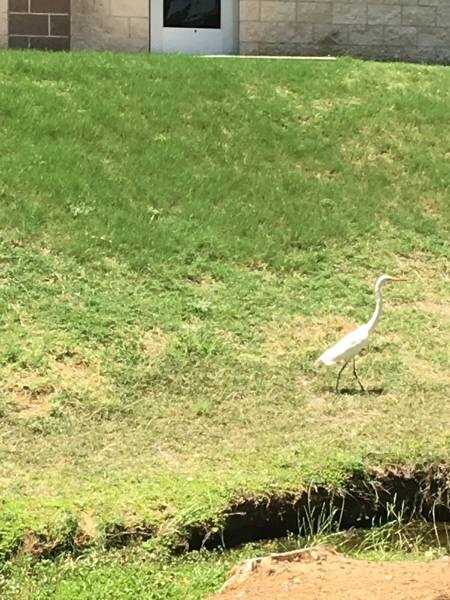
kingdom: Animalia
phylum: Chordata
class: Aves
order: Pelecaniformes
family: Ardeidae
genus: Ardea
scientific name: Ardea alba
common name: Great egret
